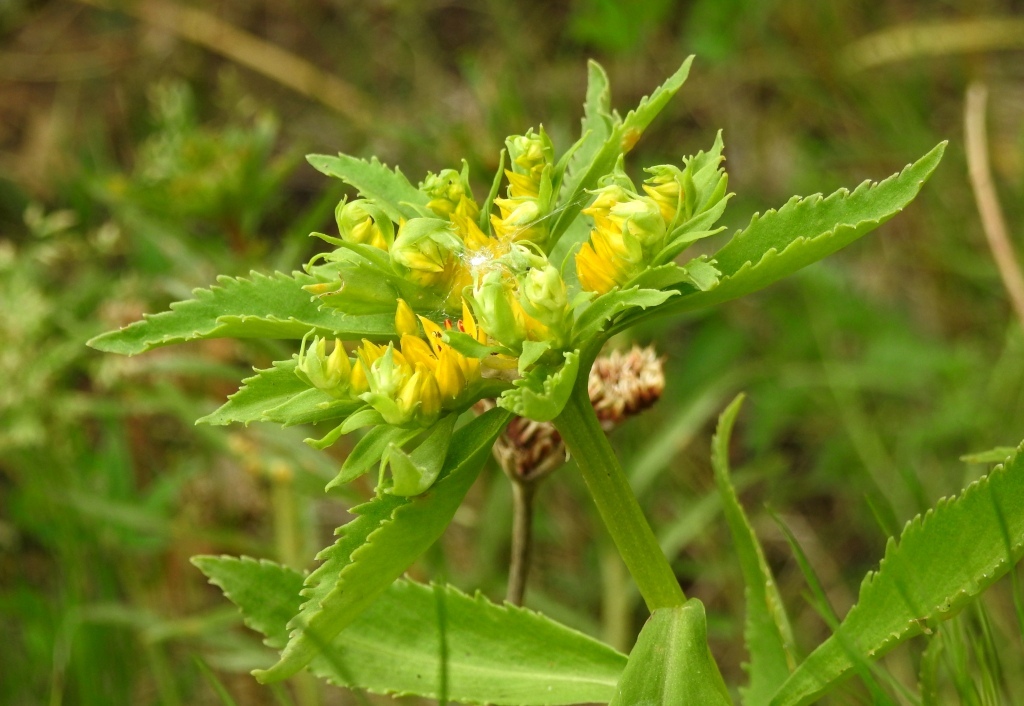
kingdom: Plantae
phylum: Tracheophyta
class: Magnoliopsida
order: Saxifragales
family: Crassulaceae
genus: Phedimus
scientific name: Phedimus aizoon
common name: Orpin aizoon
